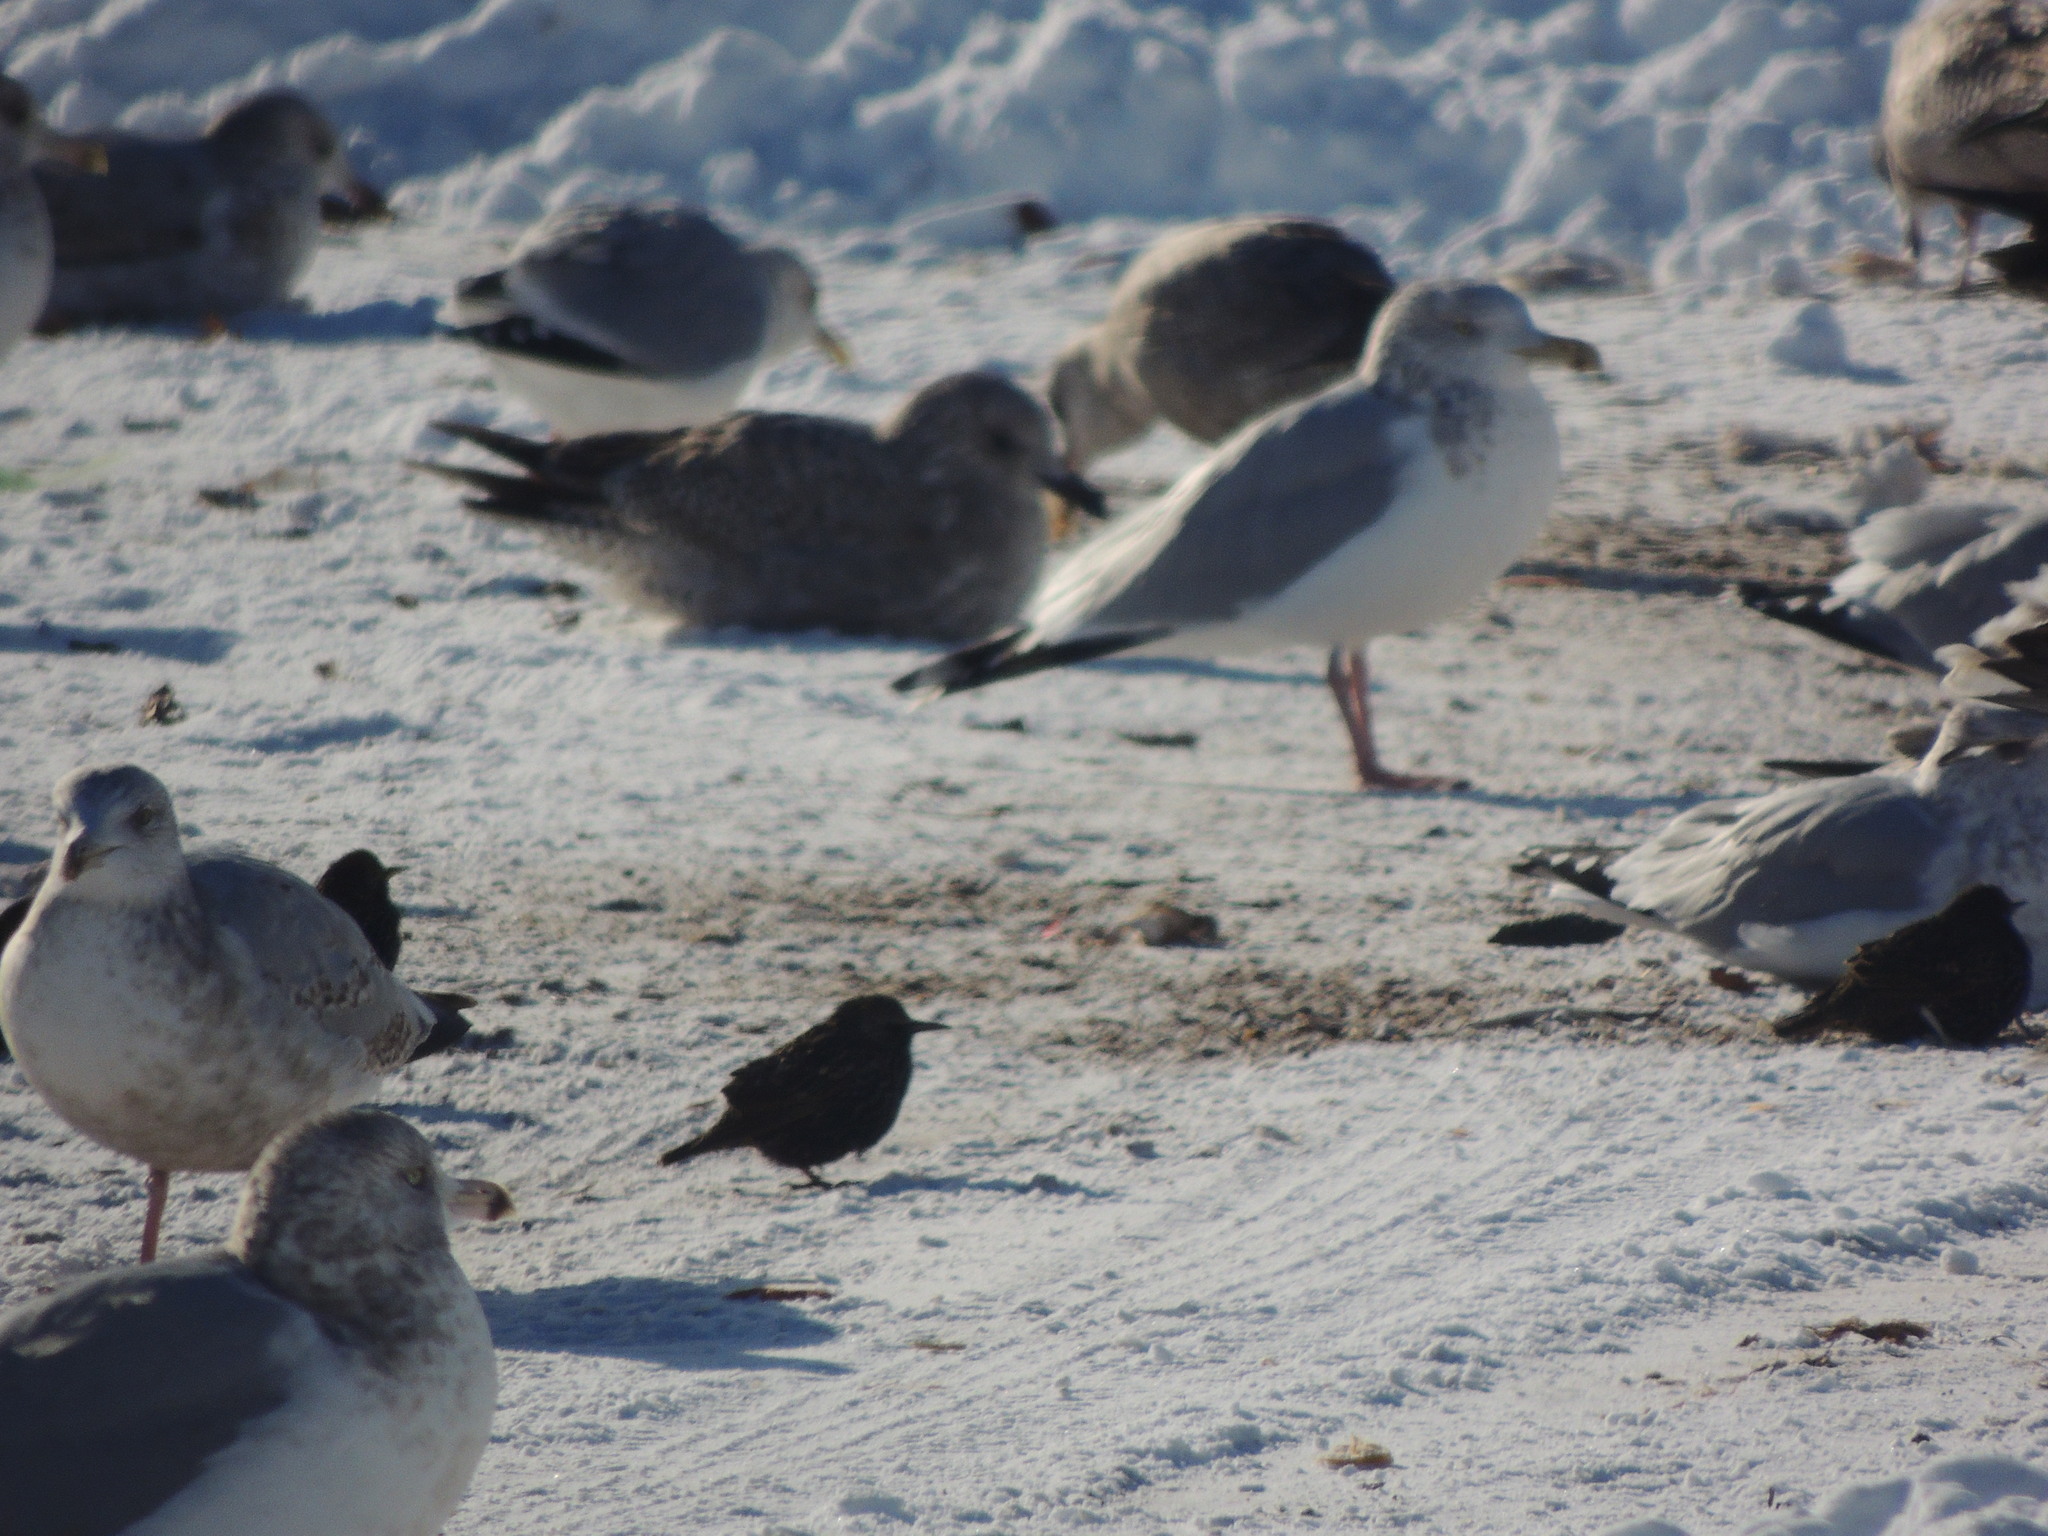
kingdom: Animalia
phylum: Chordata
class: Aves
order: Passeriformes
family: Sturnidae
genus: Sturnus
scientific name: Sturnus vulgaris
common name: Common starling
